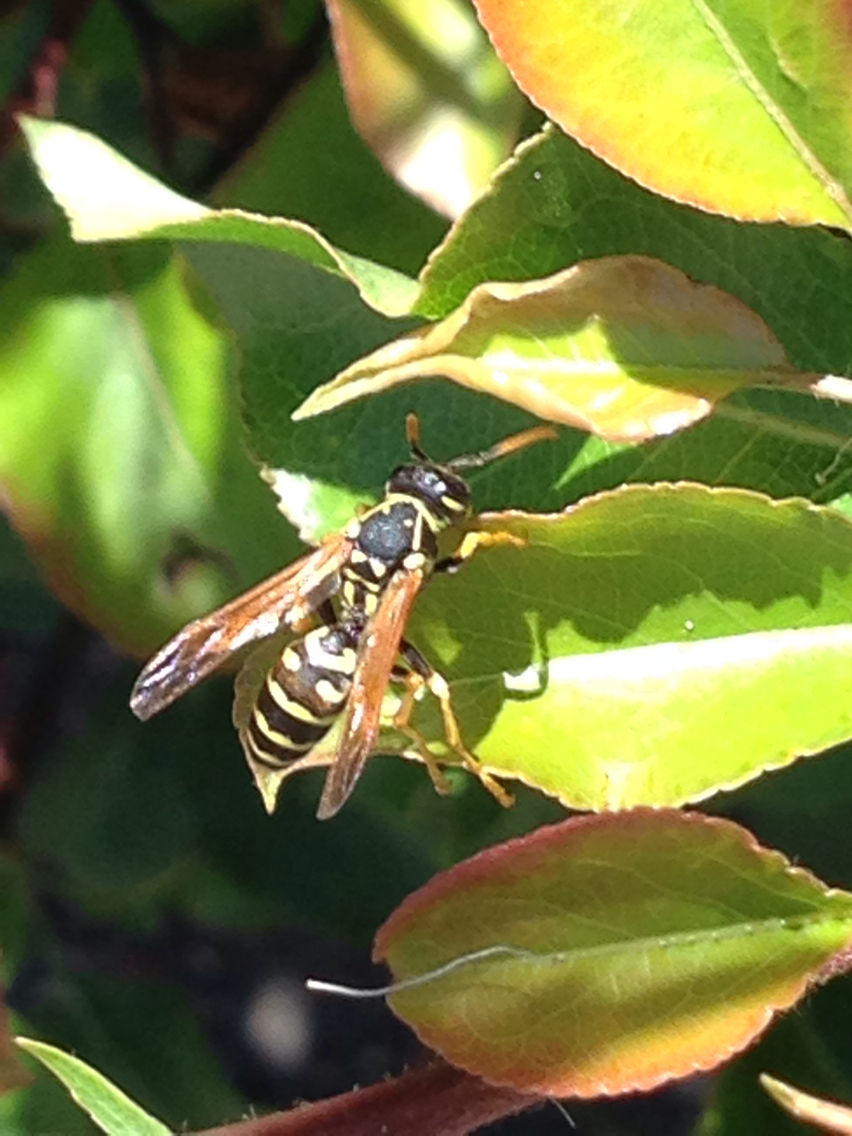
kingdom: Animalia
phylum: Arthropoda
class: Insecta
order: Hymenoptera
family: Eumenidae
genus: Polistes
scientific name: Polistes dominula
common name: Paper wasp
